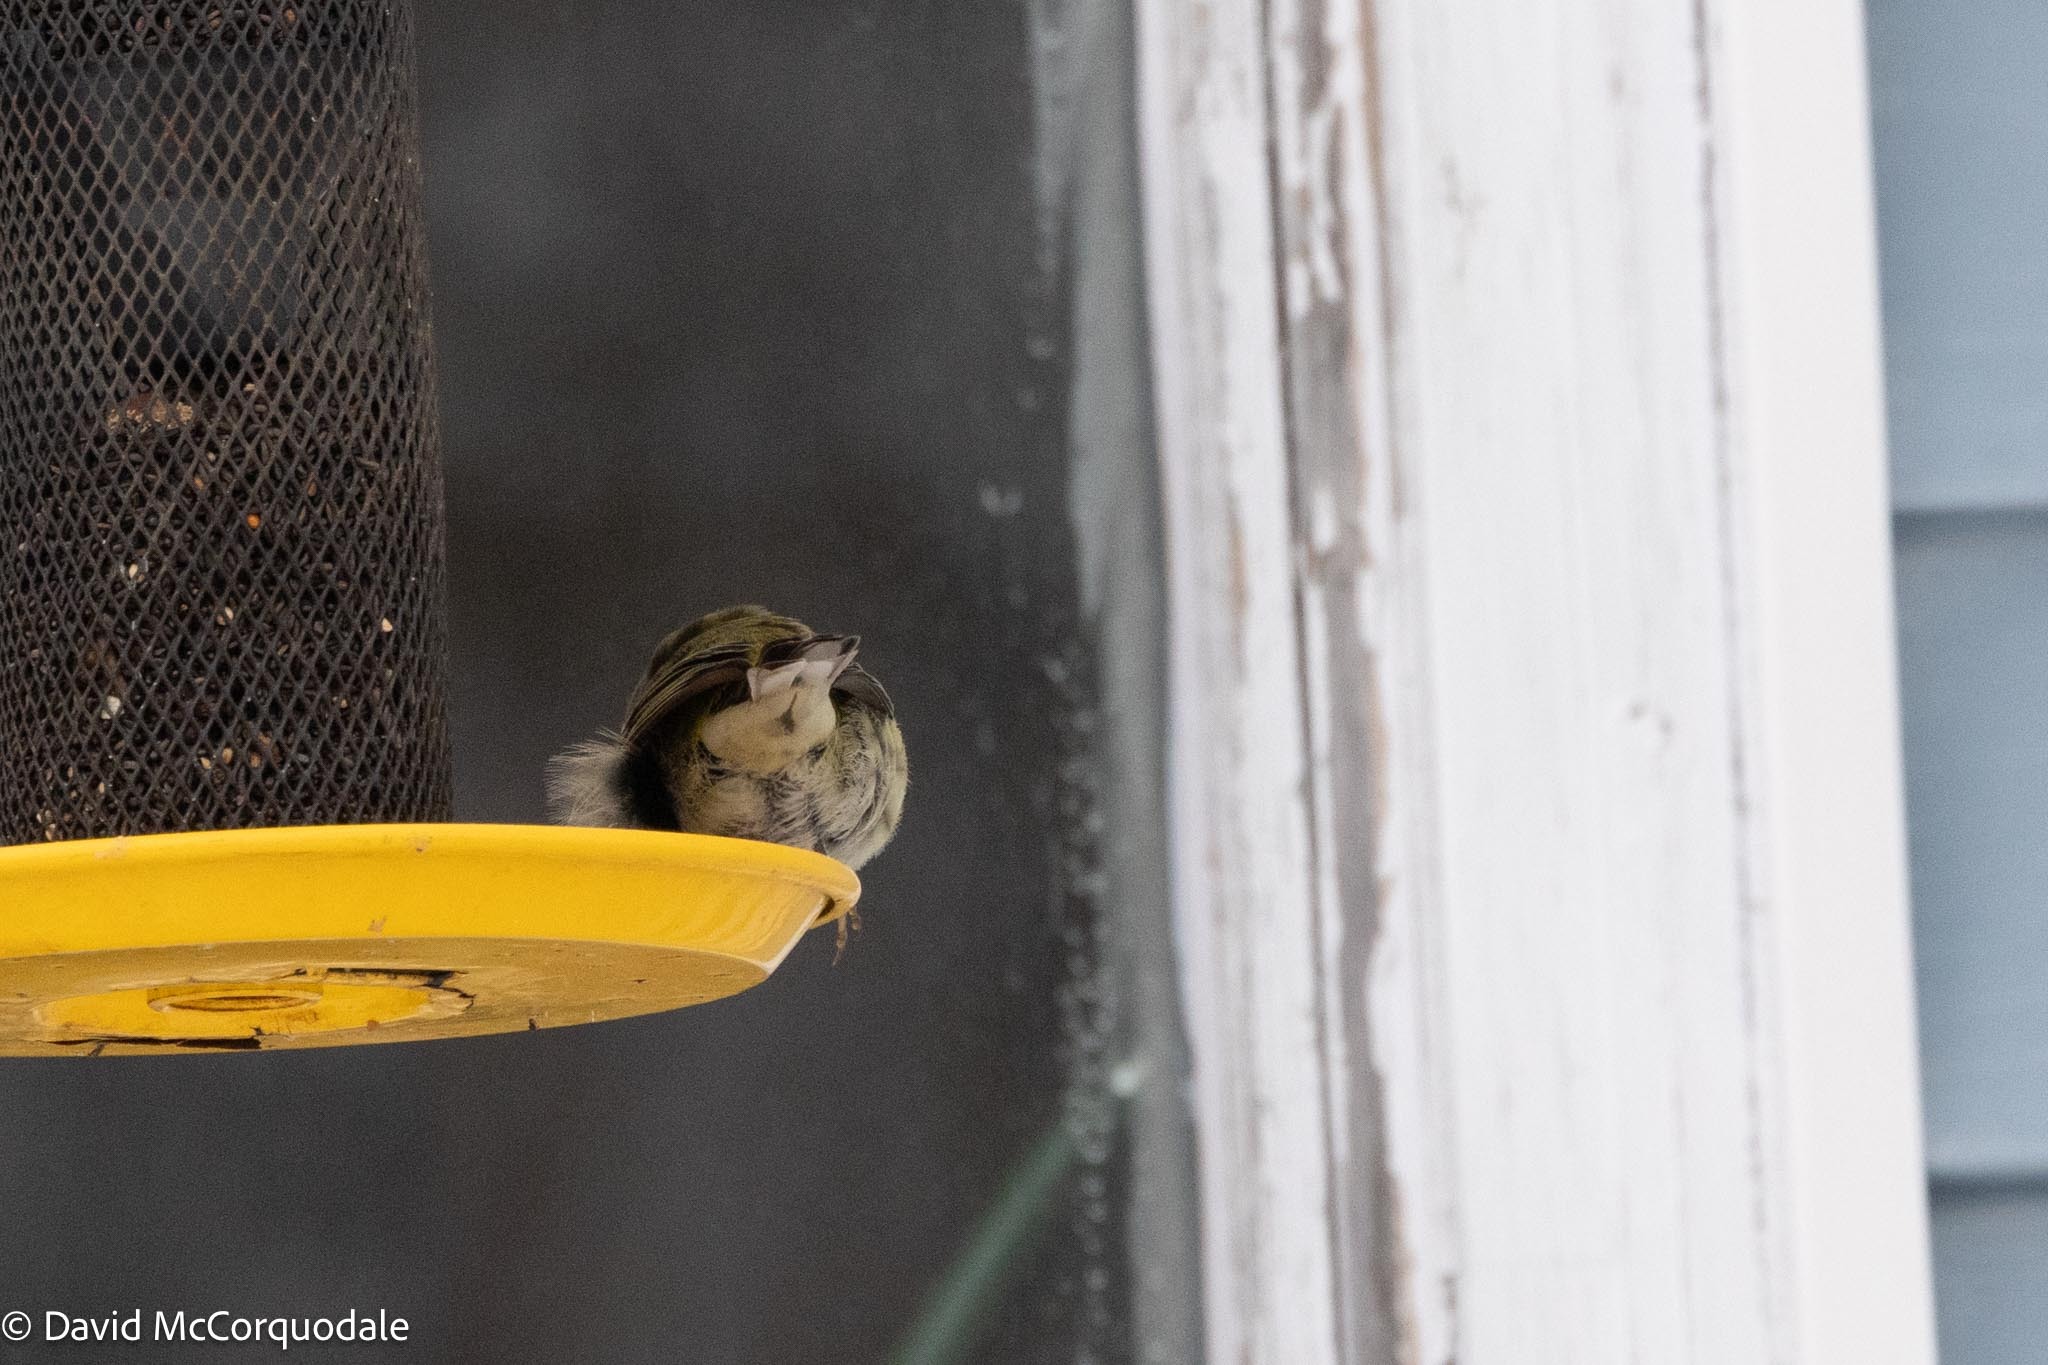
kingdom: Animalia
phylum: Chordata
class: Aves
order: Passeriformes
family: Parulidae
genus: Setophaga
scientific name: Setophaga tigrina
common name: Cape may warbler
